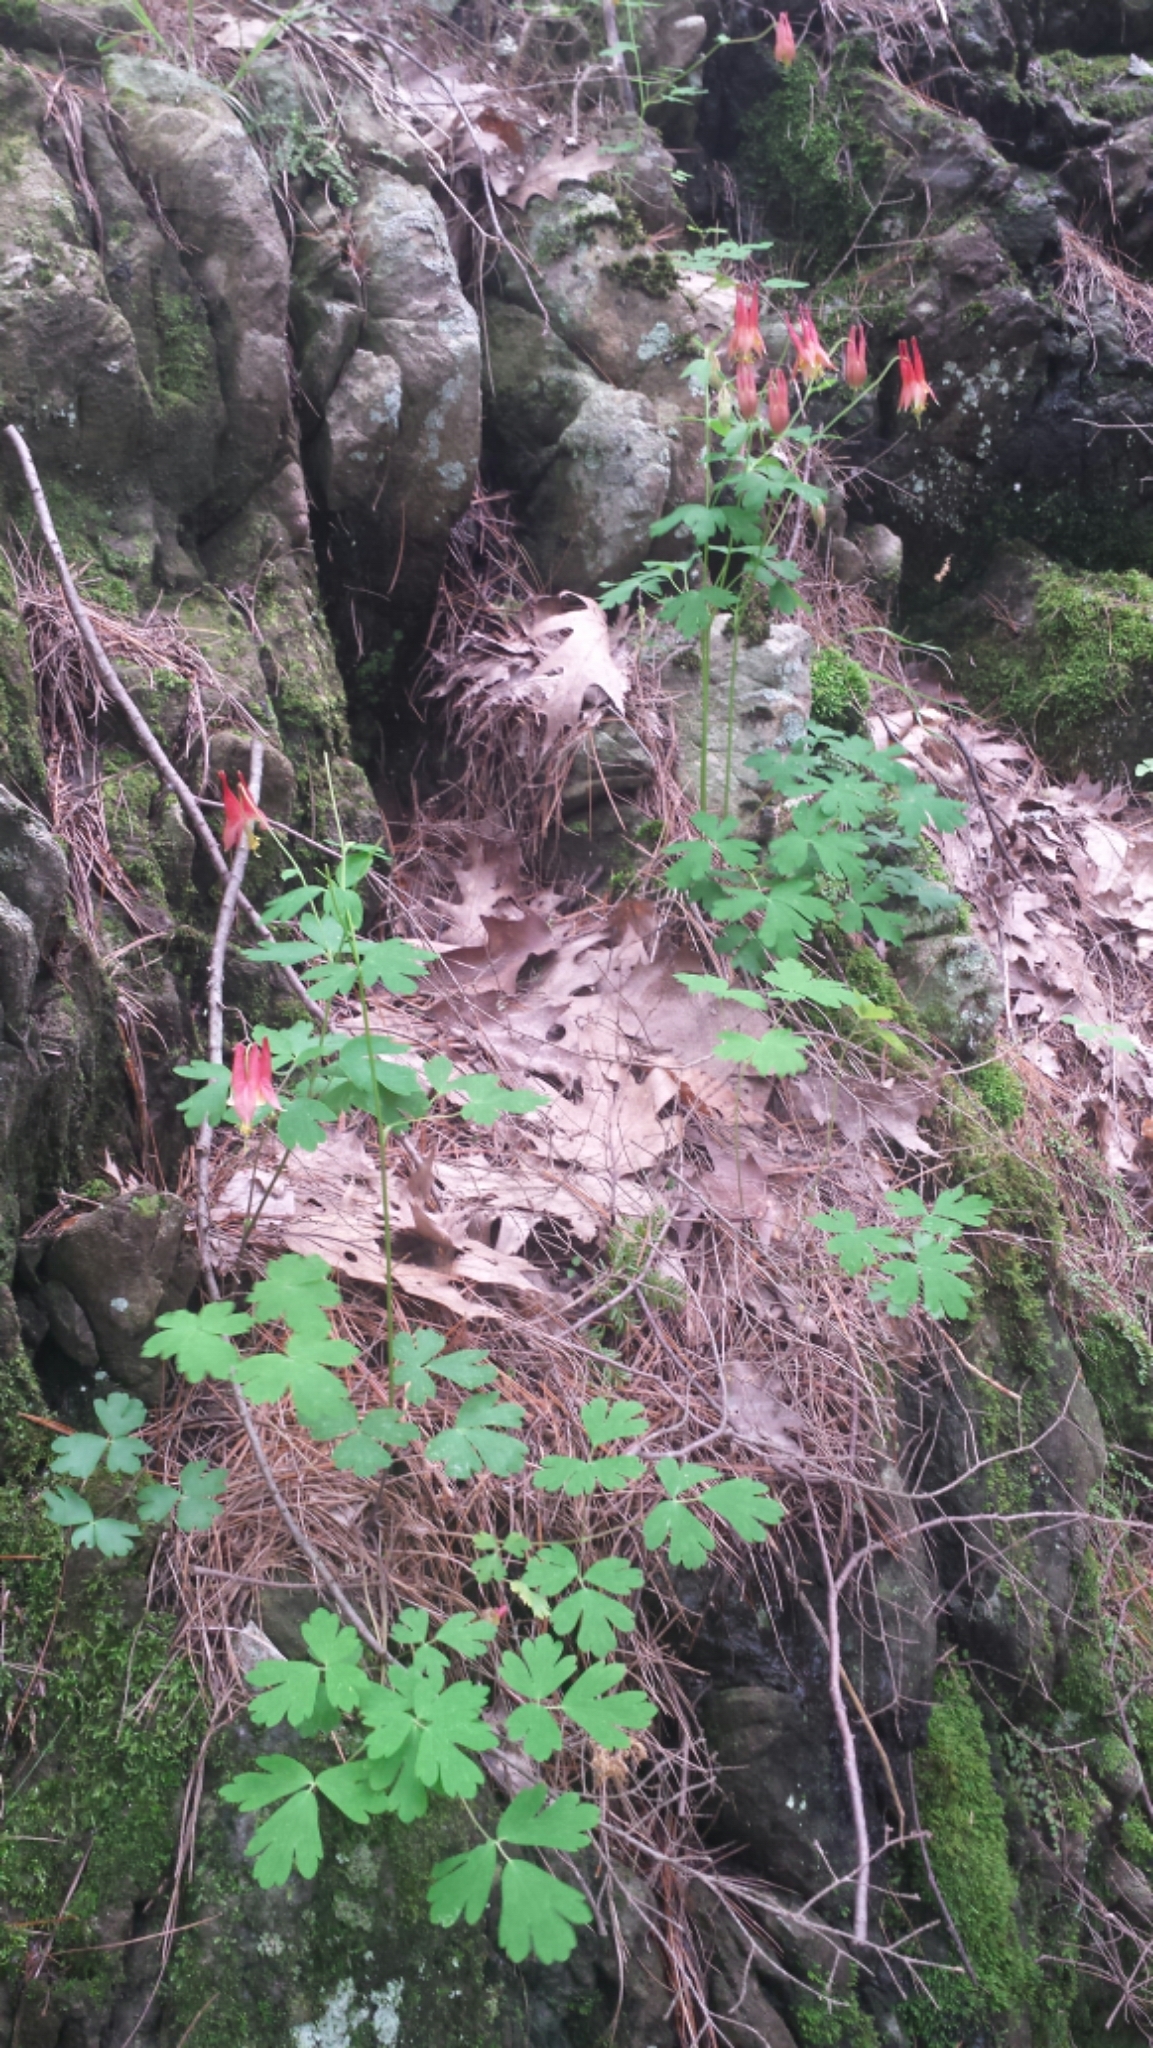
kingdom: Plantae
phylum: Tracheophyta
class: Magnoliopsida
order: Ranunculales
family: Ranunculaceae
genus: Aquilegia
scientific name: Aquilegia canadensis
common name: American columbine
